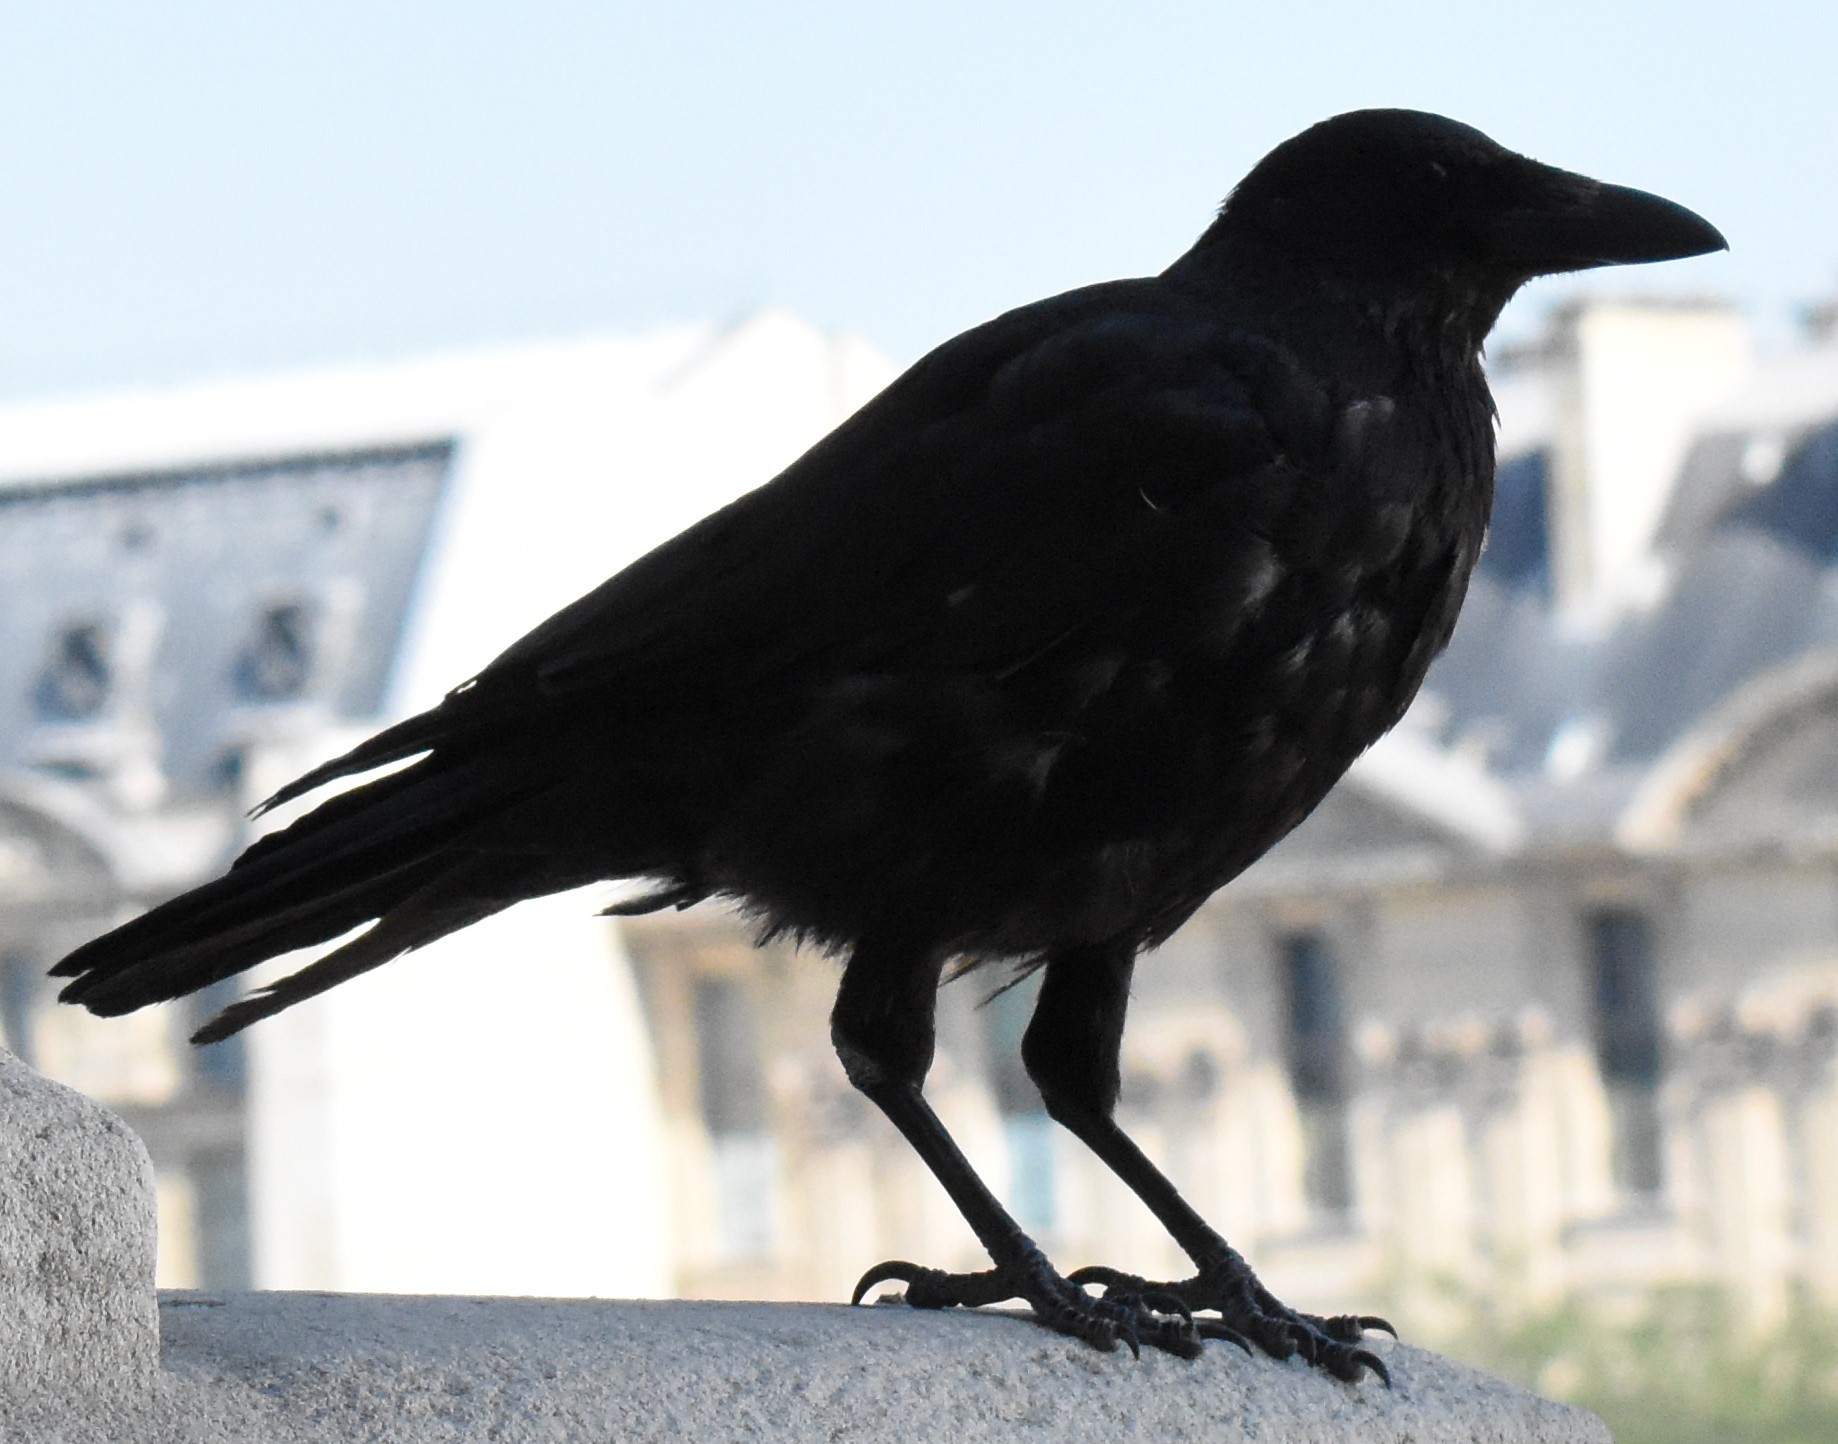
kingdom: Animalia
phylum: Chordata
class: Aves
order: Passeriformes
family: Corvidae
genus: Corvus
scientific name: Corvus corone
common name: Carrion crow
